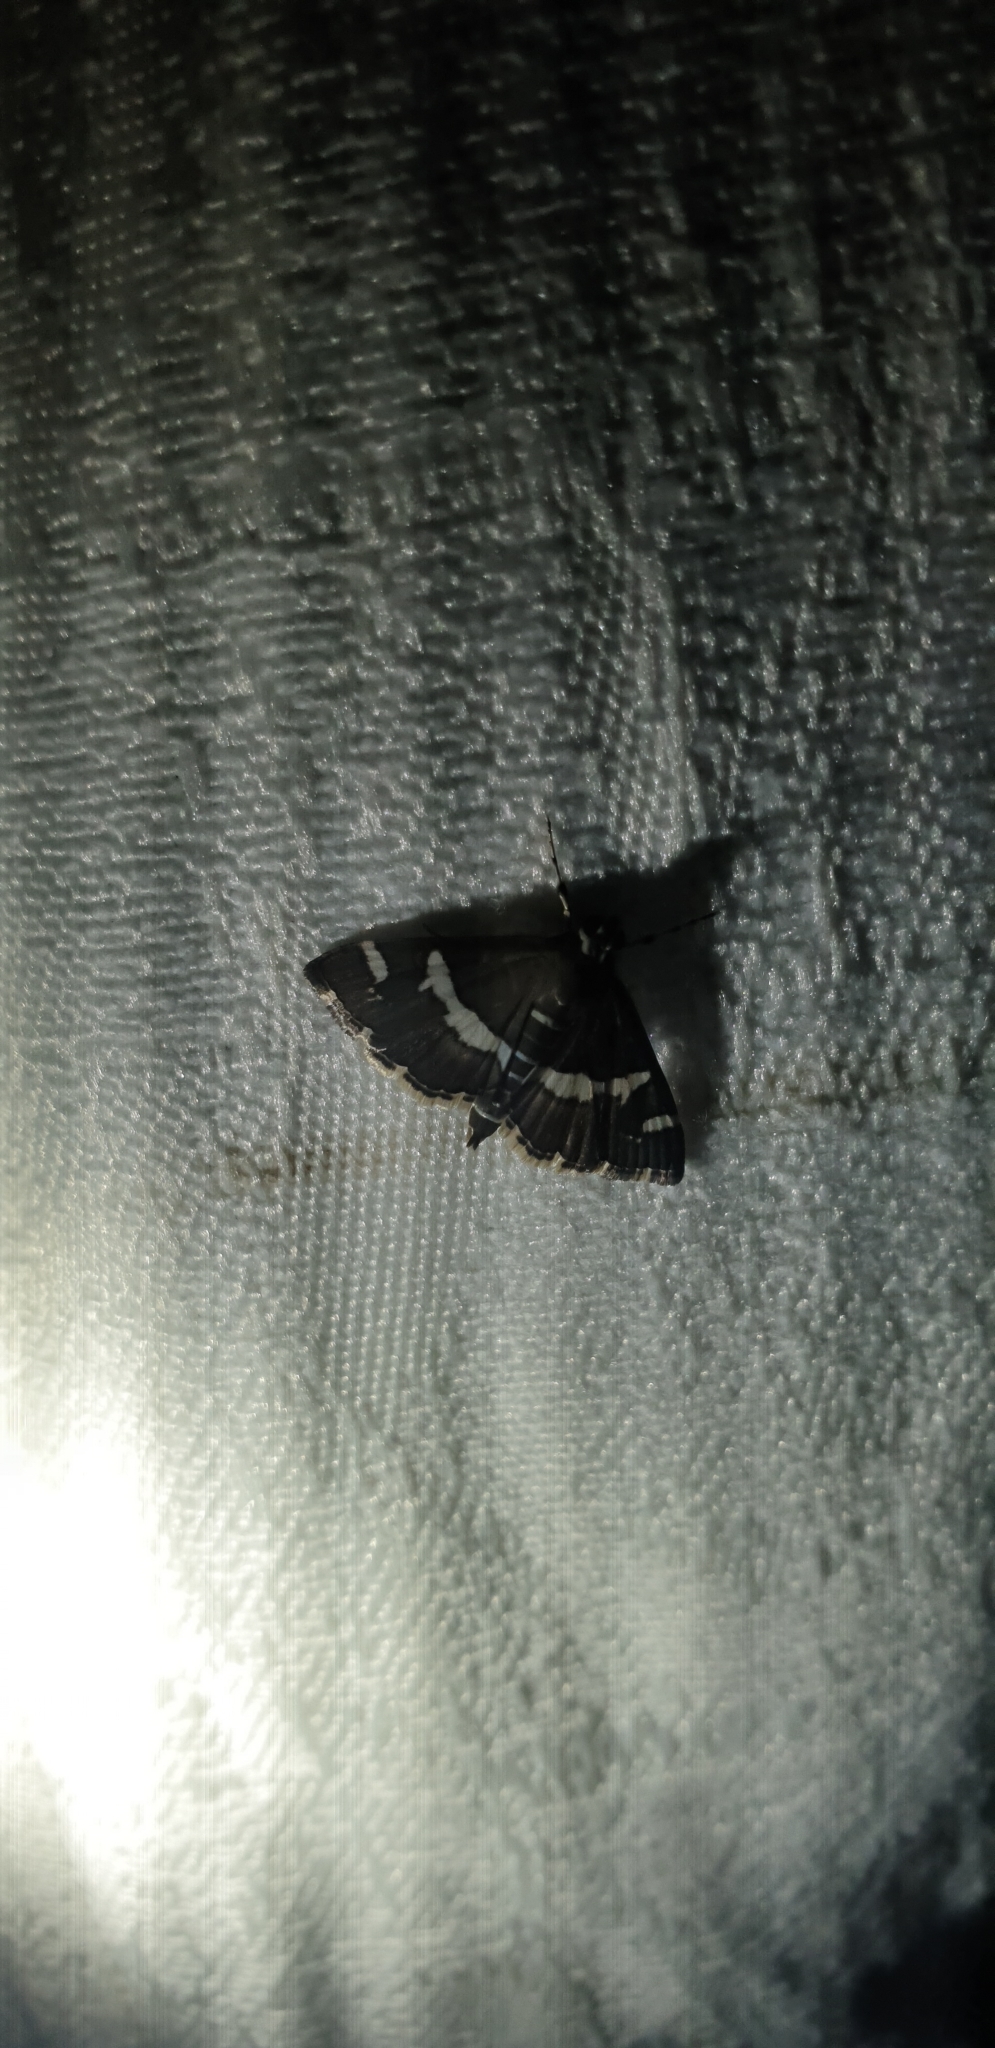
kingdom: Animalia
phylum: Arthropoda
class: Insecta
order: Lepidoptera
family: Crambidae
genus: Spoladea
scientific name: Spoladea recurvalis
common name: Beet webworm moth
